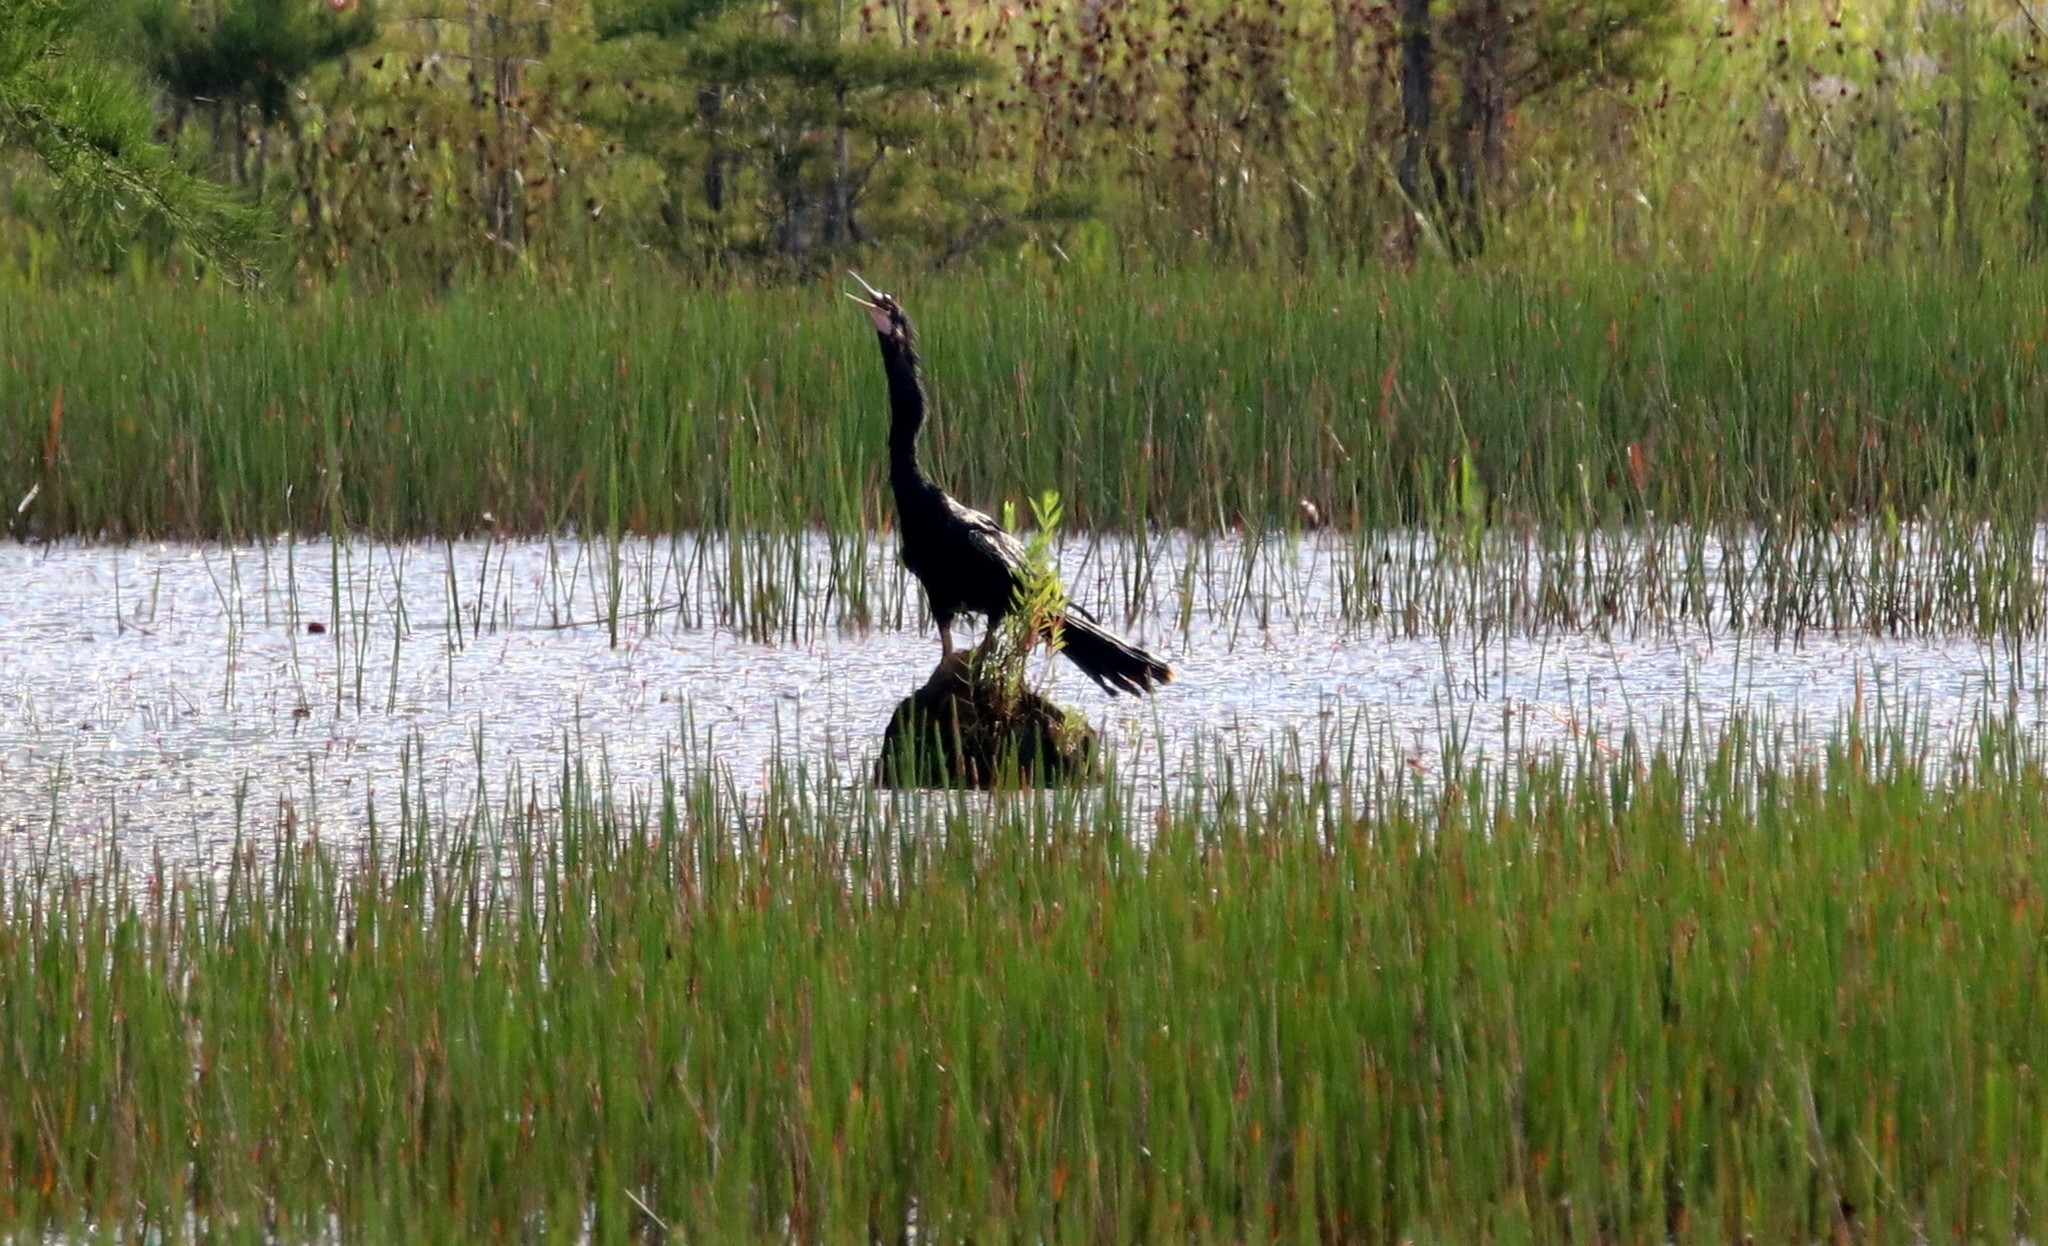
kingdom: Animalia
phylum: Chordata
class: Aves
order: Suliformes
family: Anhingidae
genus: Anhinga
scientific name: Anhinga anhinga
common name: Anhinga
